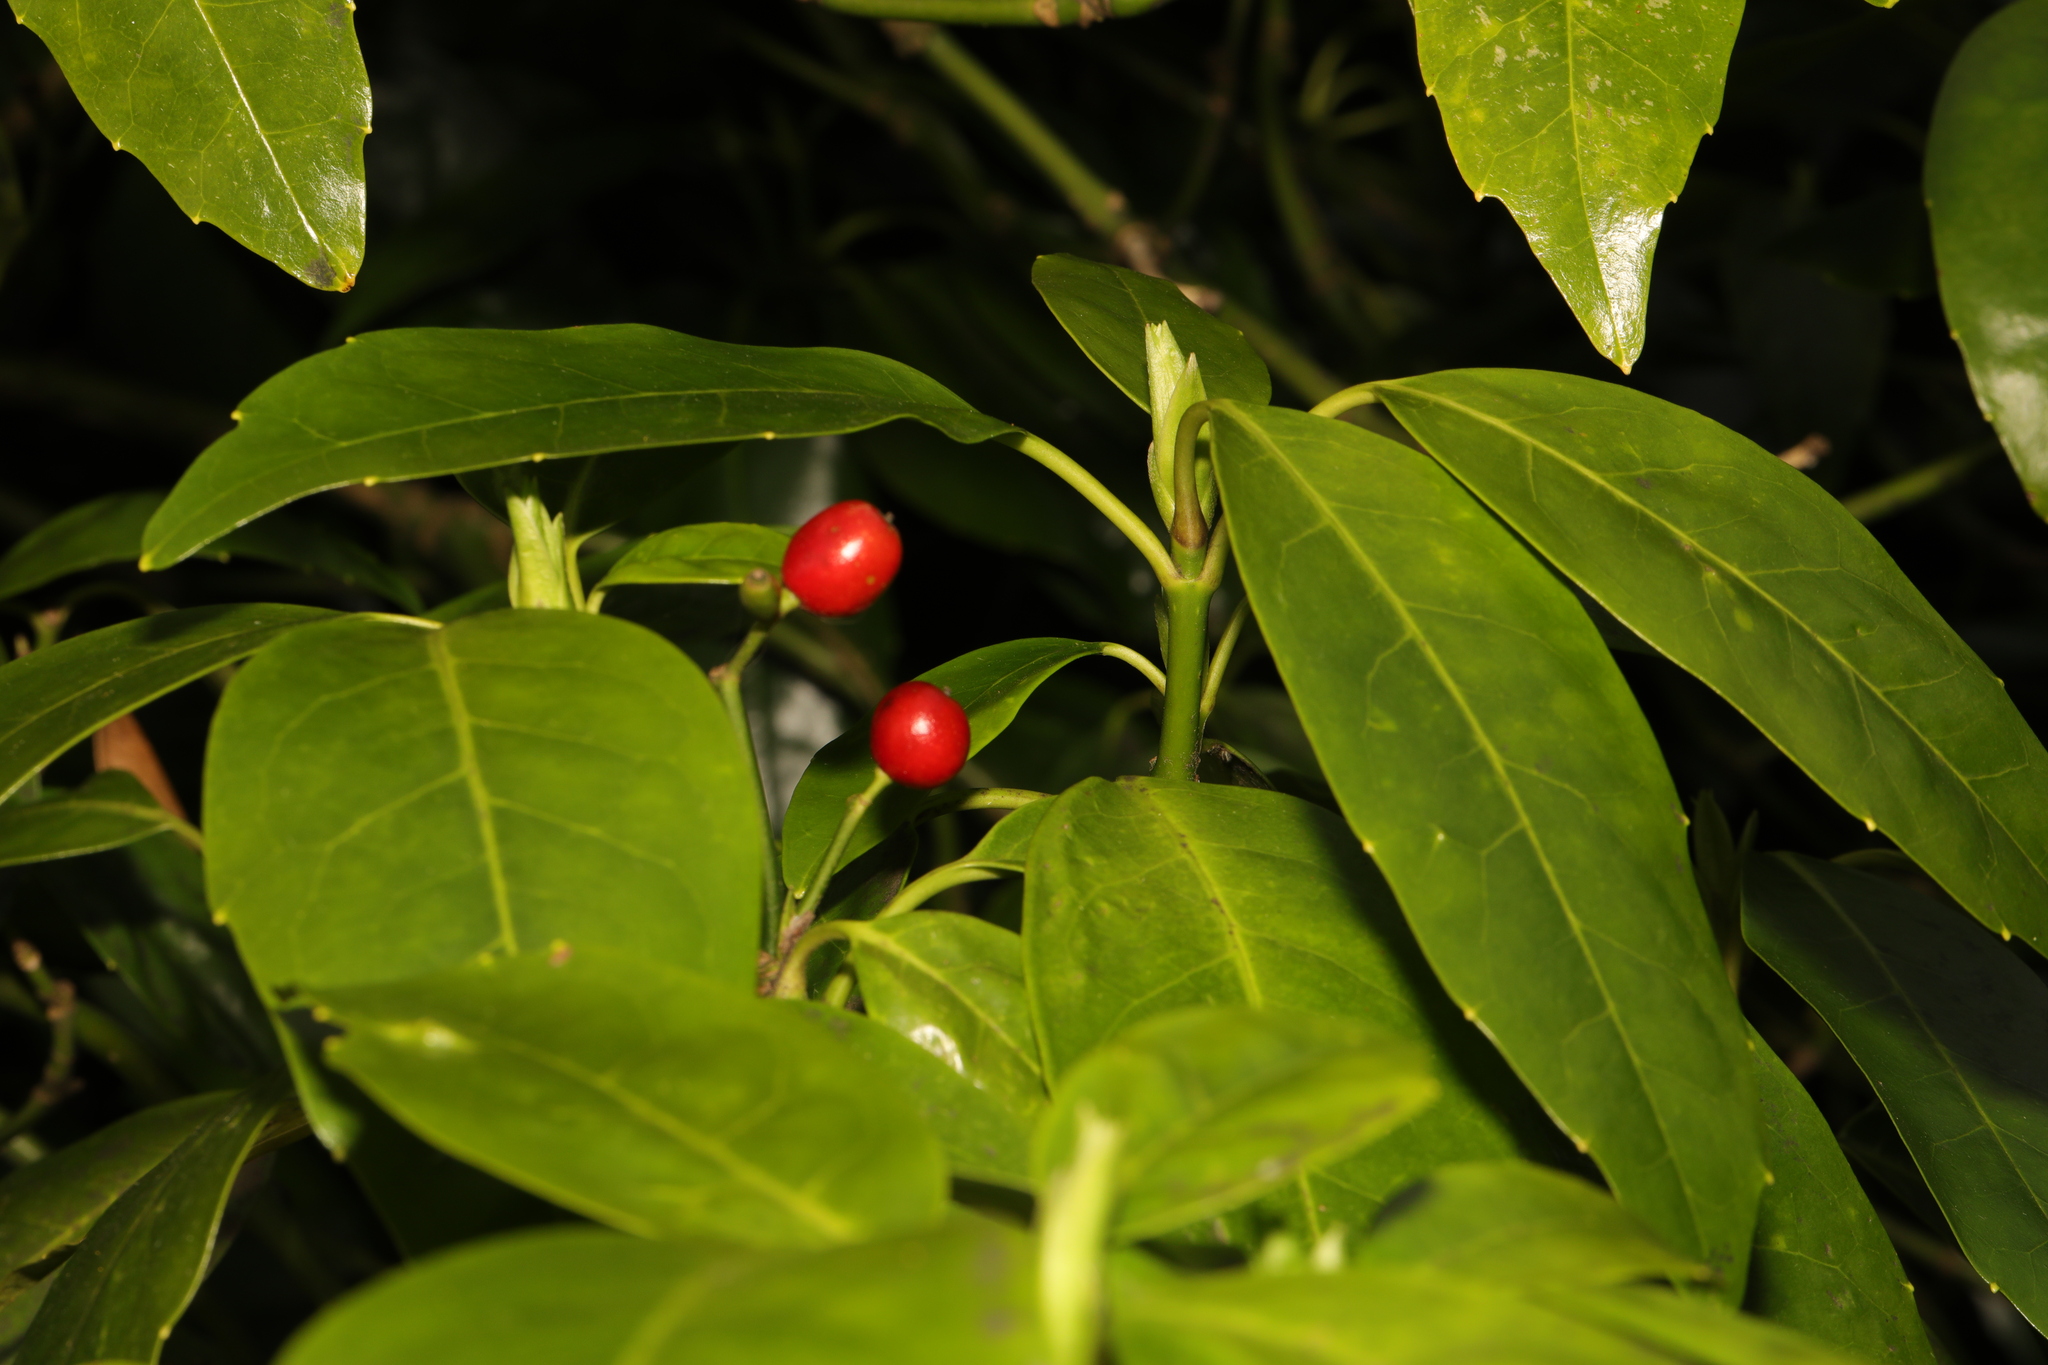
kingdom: Plantae
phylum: Tracheophyta
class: Magnoliopsida
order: Garryales
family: Garryaceae
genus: Aucuba
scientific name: Aucuba japonica
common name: Spotted-laurel
